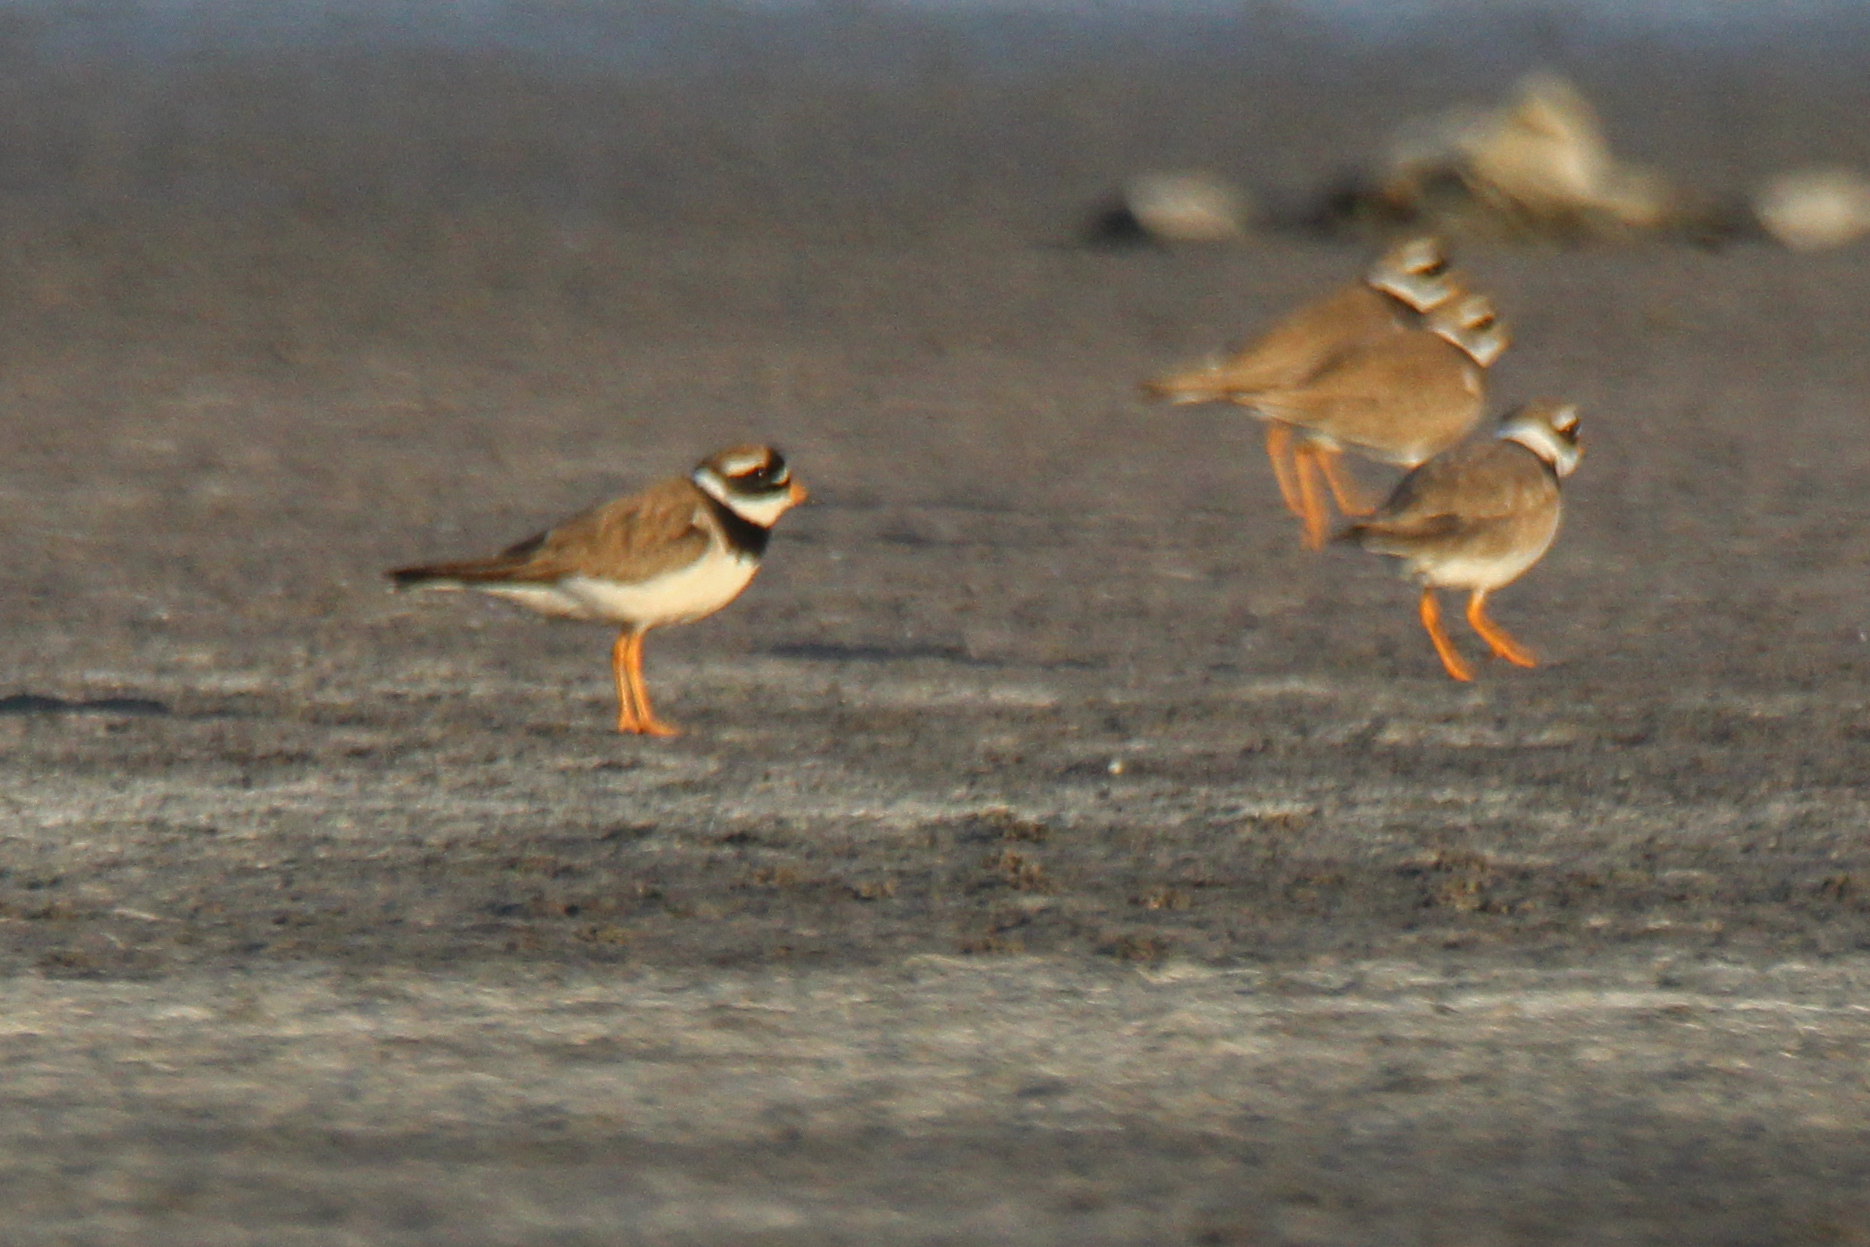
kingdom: Animalia
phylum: Chordata
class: Aves
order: Charadriiformes
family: Charadriidae
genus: Charadrius
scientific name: Charadrius hiaticula
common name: Common ringed plover
